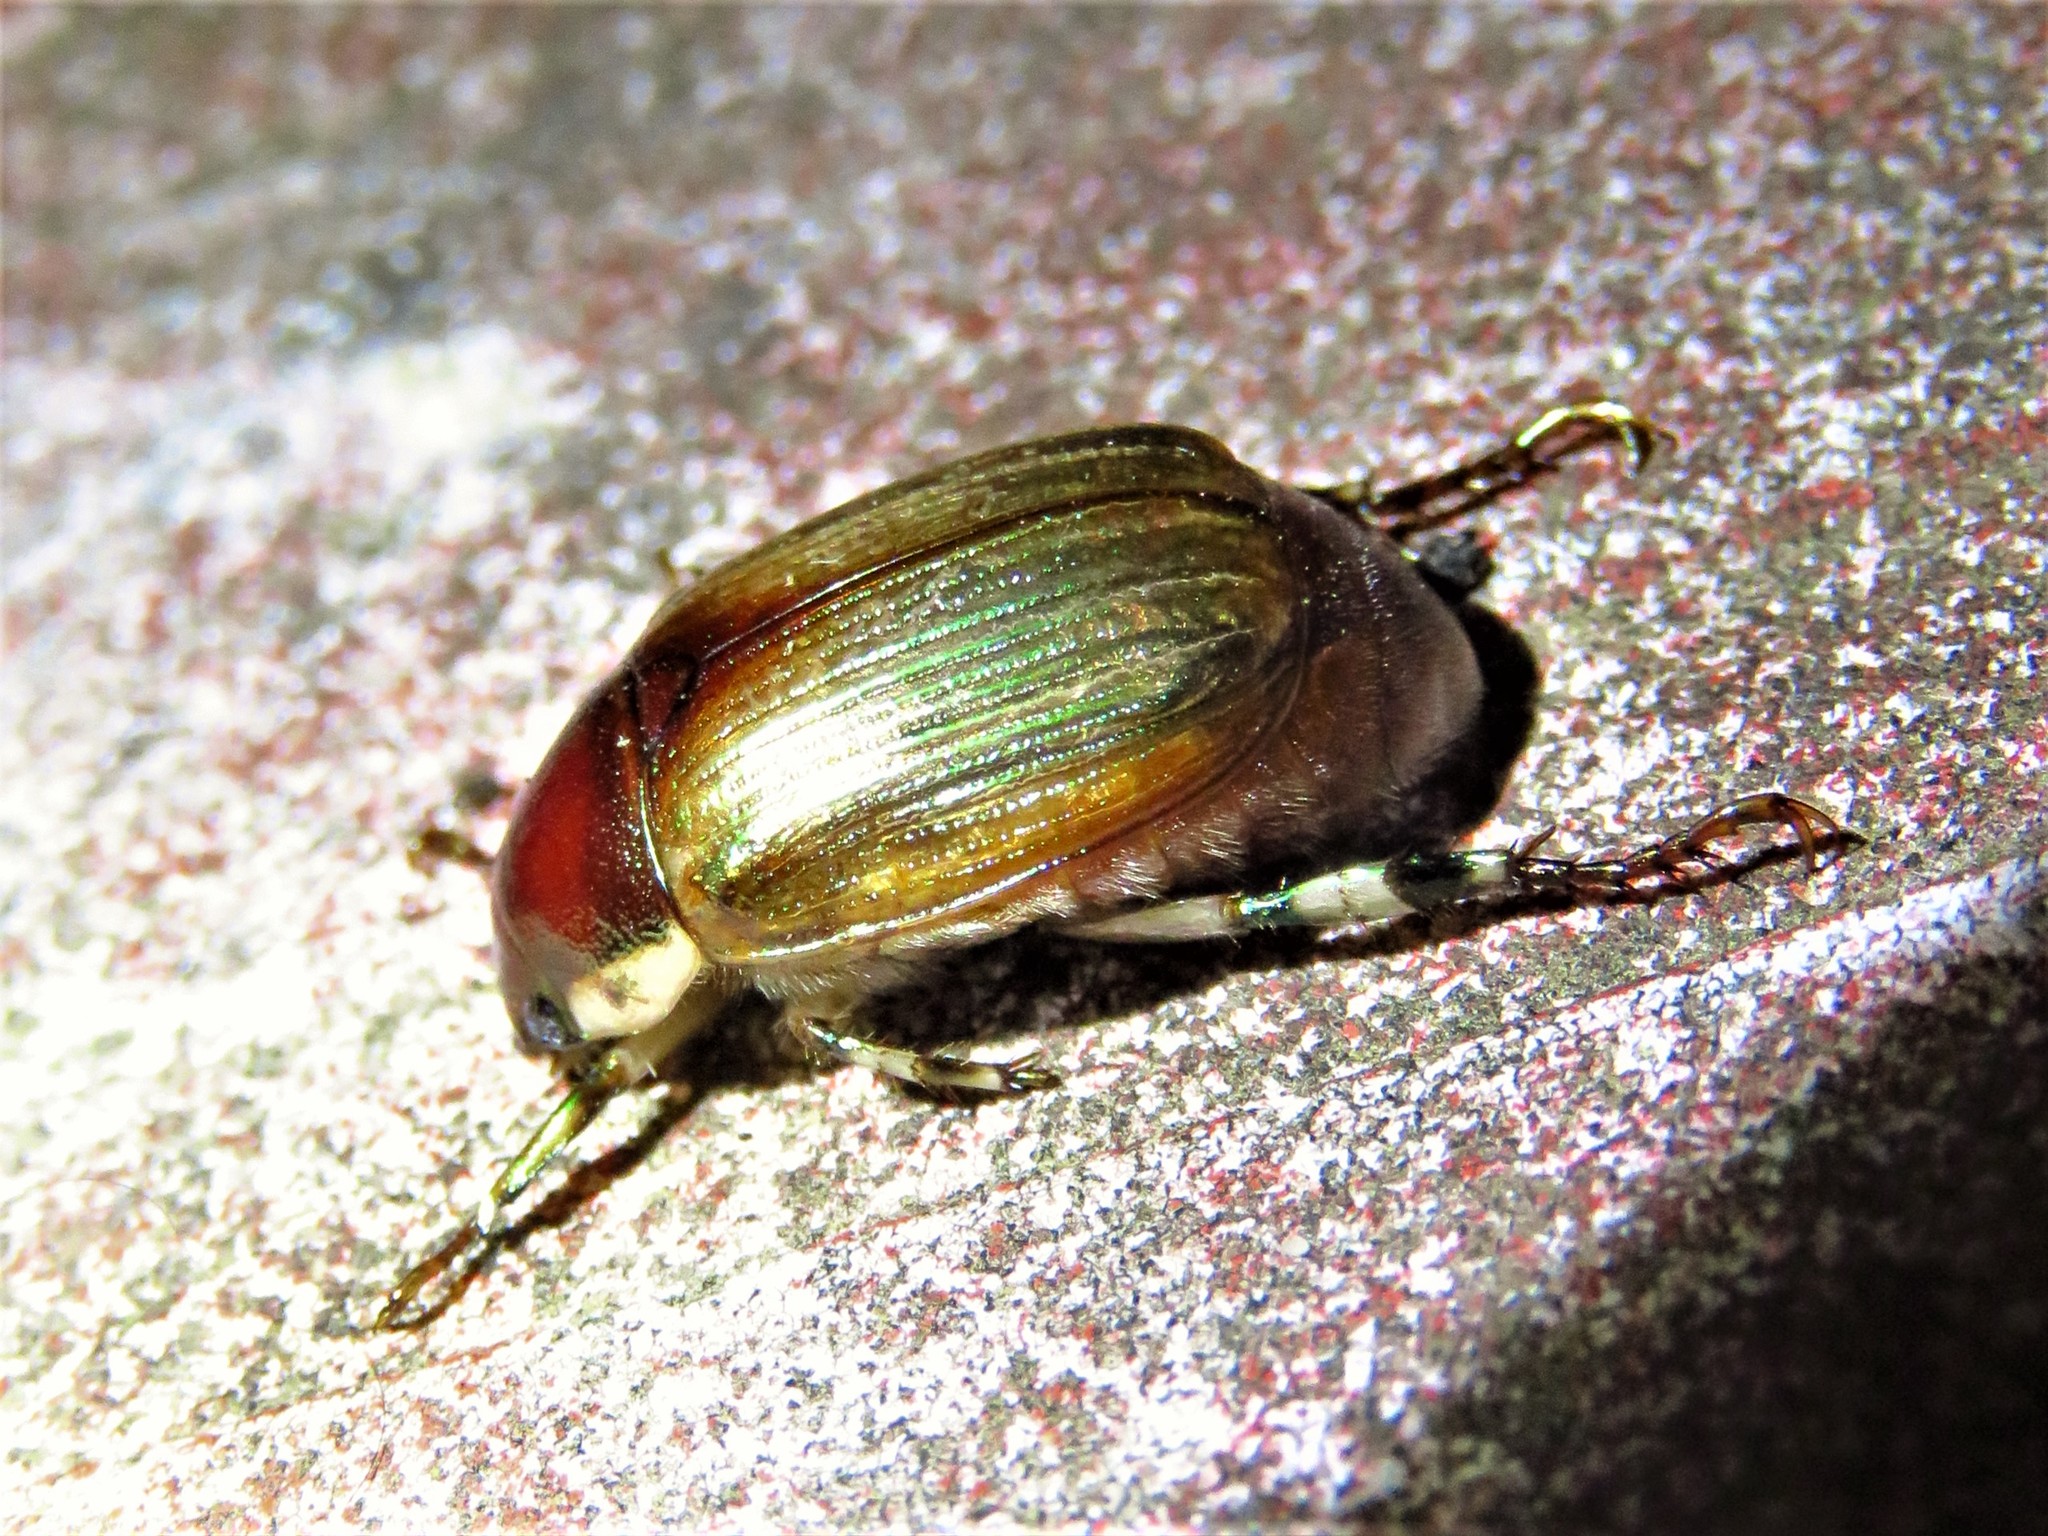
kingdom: Animalia
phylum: Arthropoda
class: Insecta
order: Coleoptera
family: Scarabaeidae
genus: Callistethus
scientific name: Callistethus marginatus
